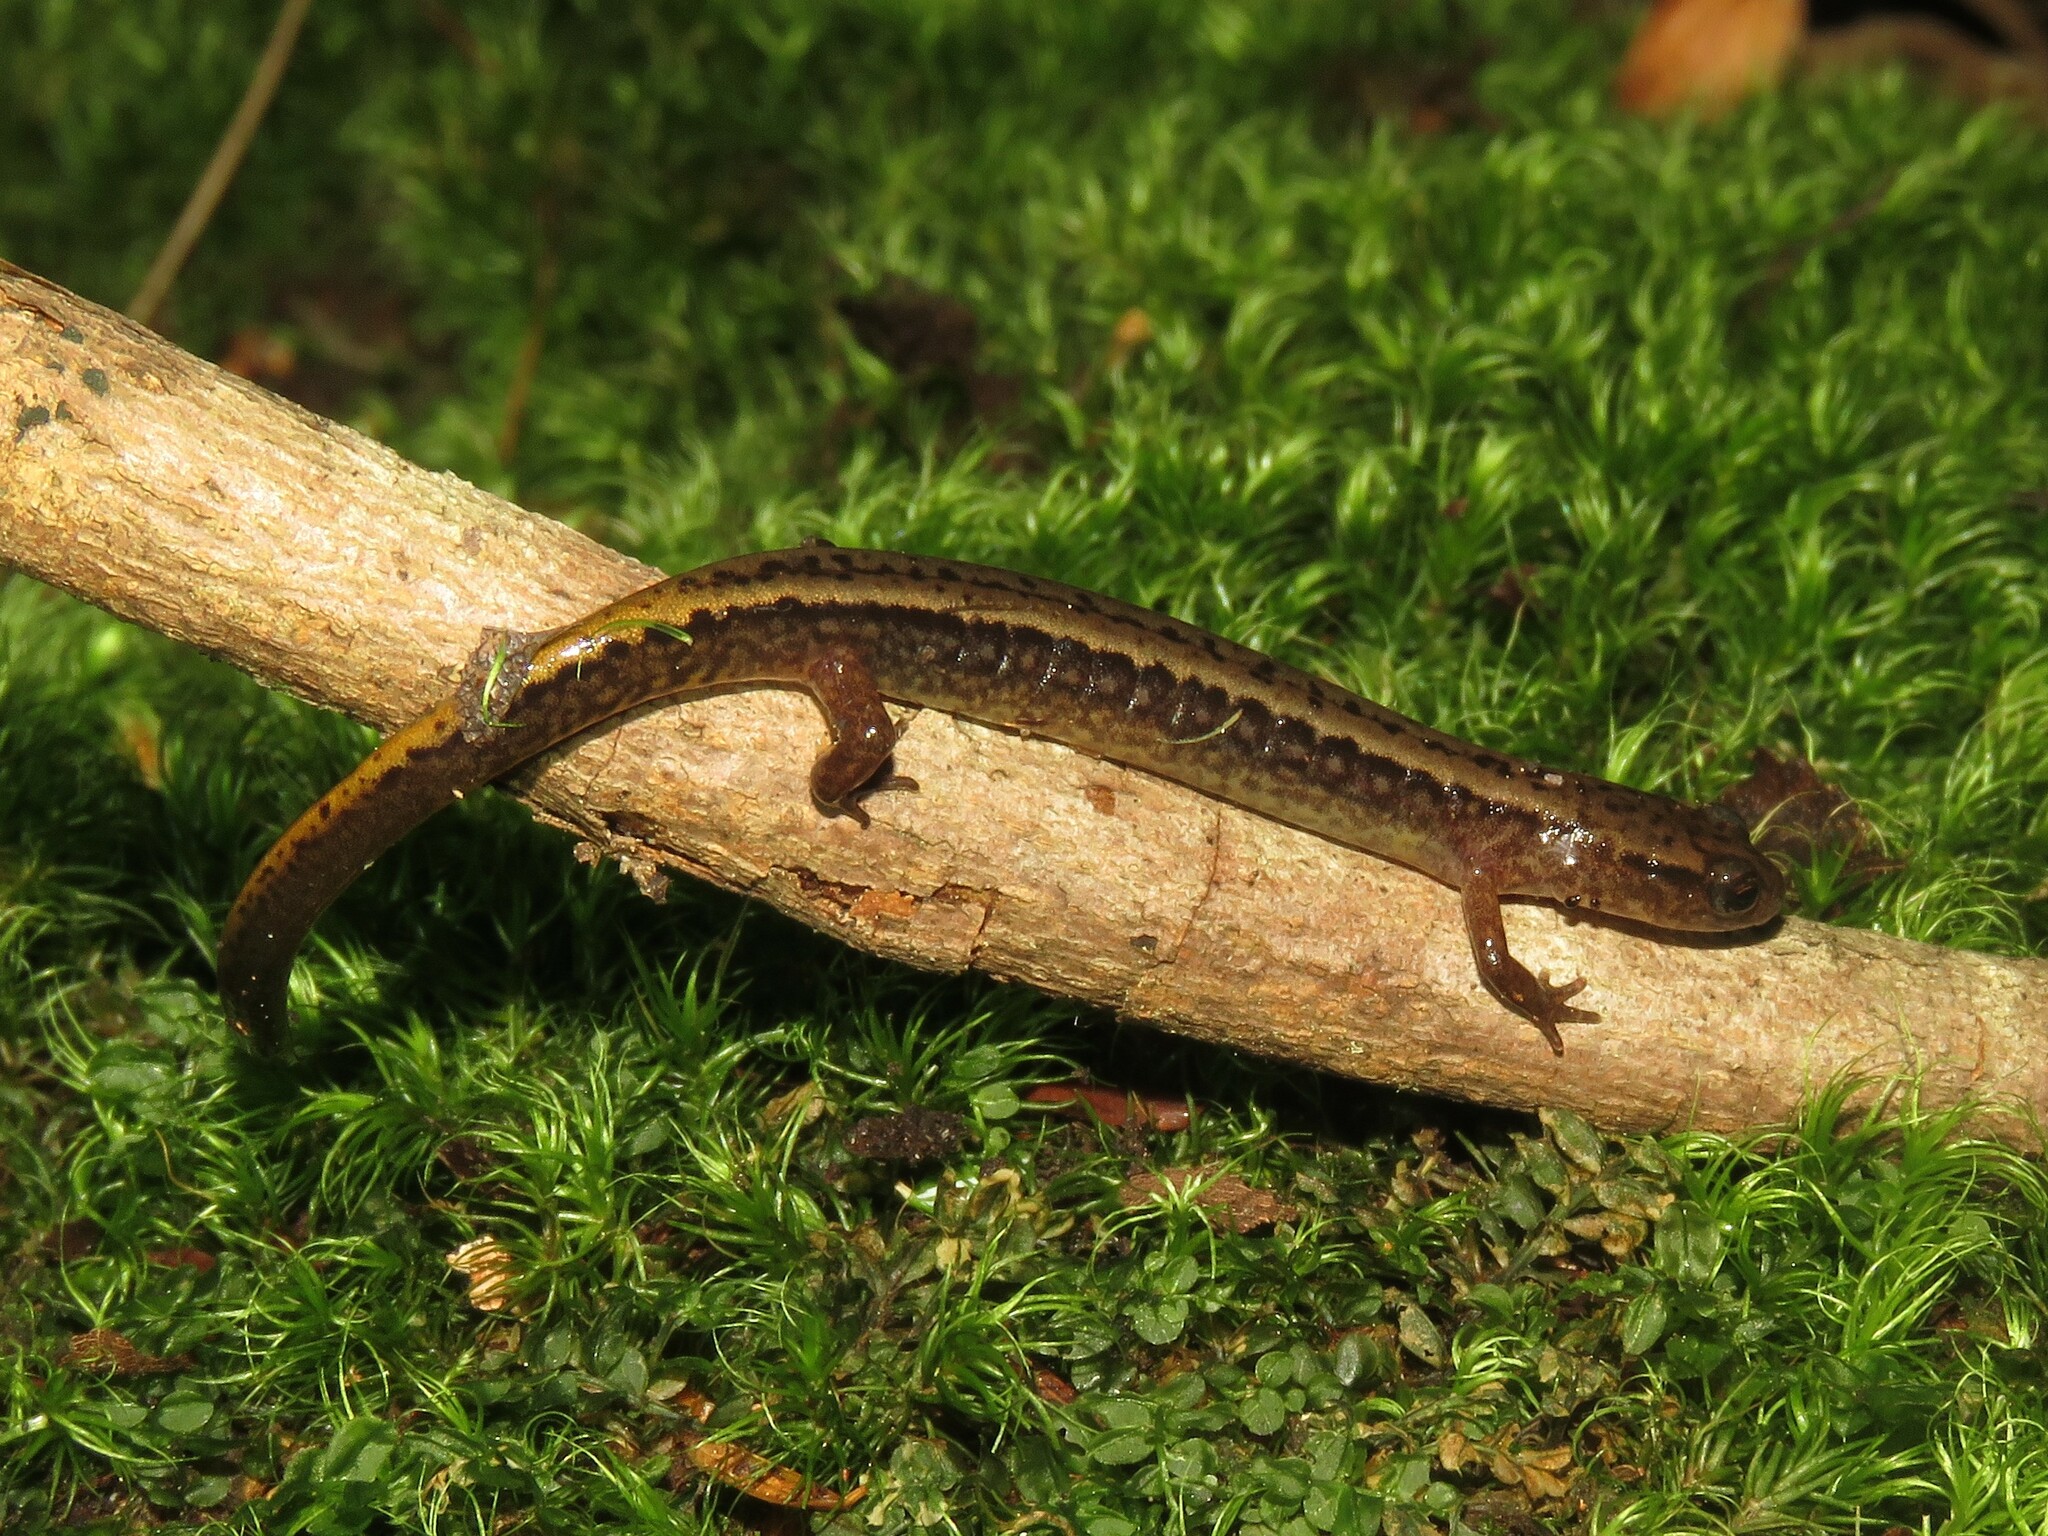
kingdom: Animalia
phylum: Chordata
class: Amphibia
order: Caudata
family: Plethodontidae
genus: Eurycea
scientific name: Eurycea bislineata
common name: Northern two-lined salamander
